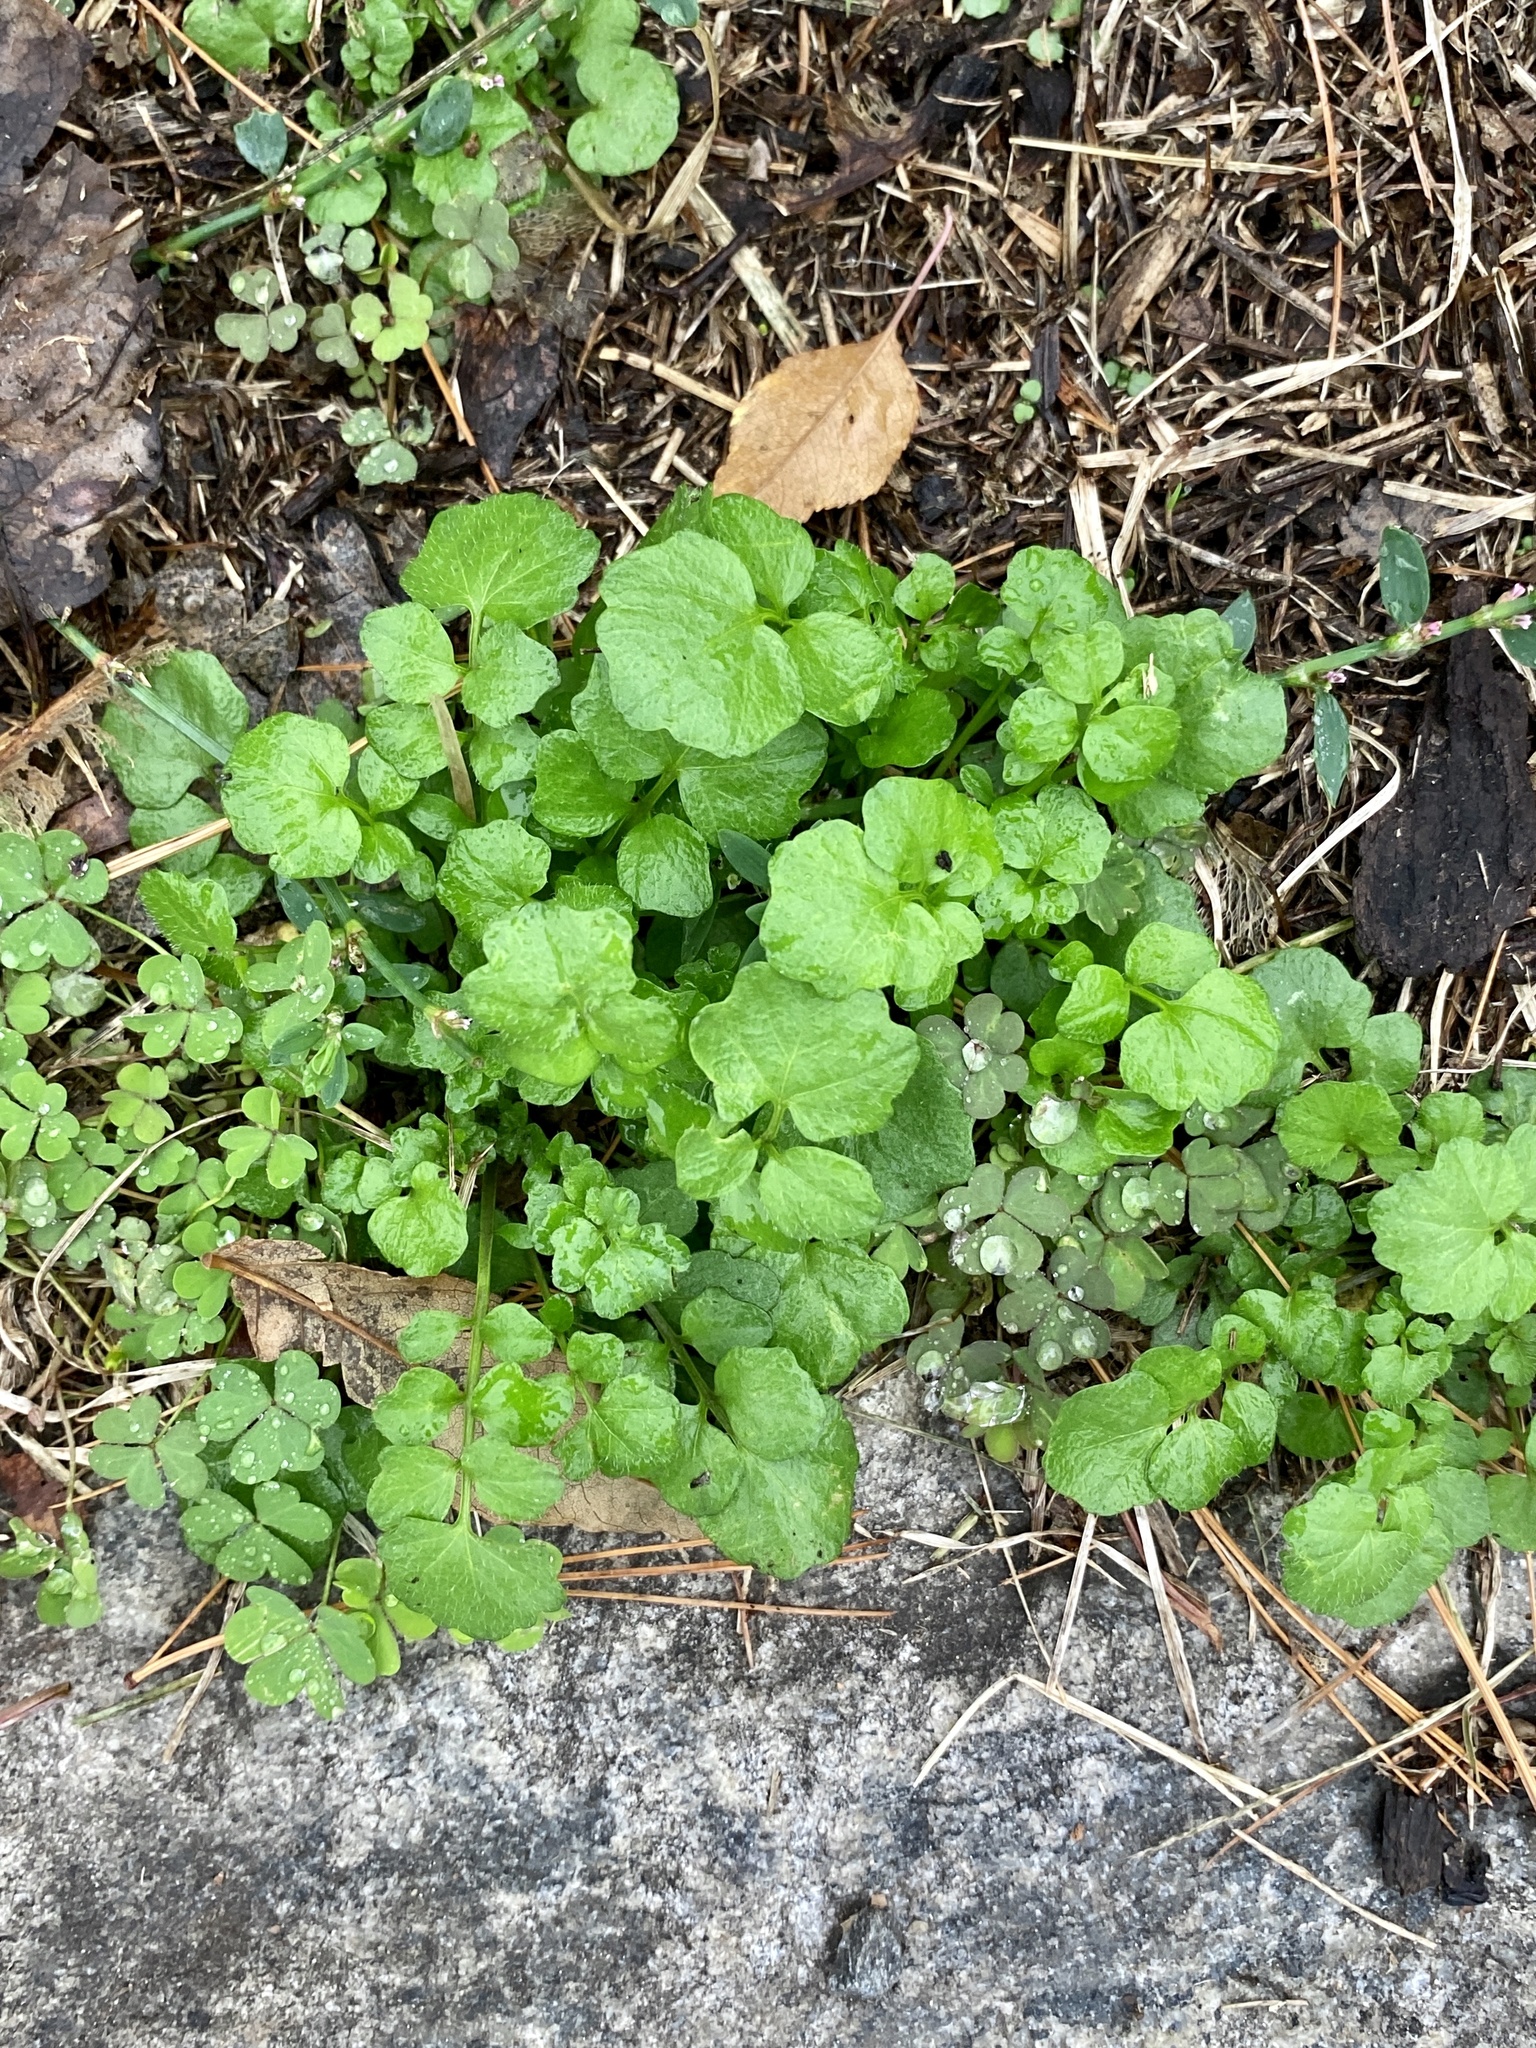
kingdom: Plantae
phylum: Tracheophyta
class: Magnoliopsida
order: Brassicales
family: Brassicaceae
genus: Cardamine
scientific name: Cardamine hirsuta
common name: Hairy bittercress
